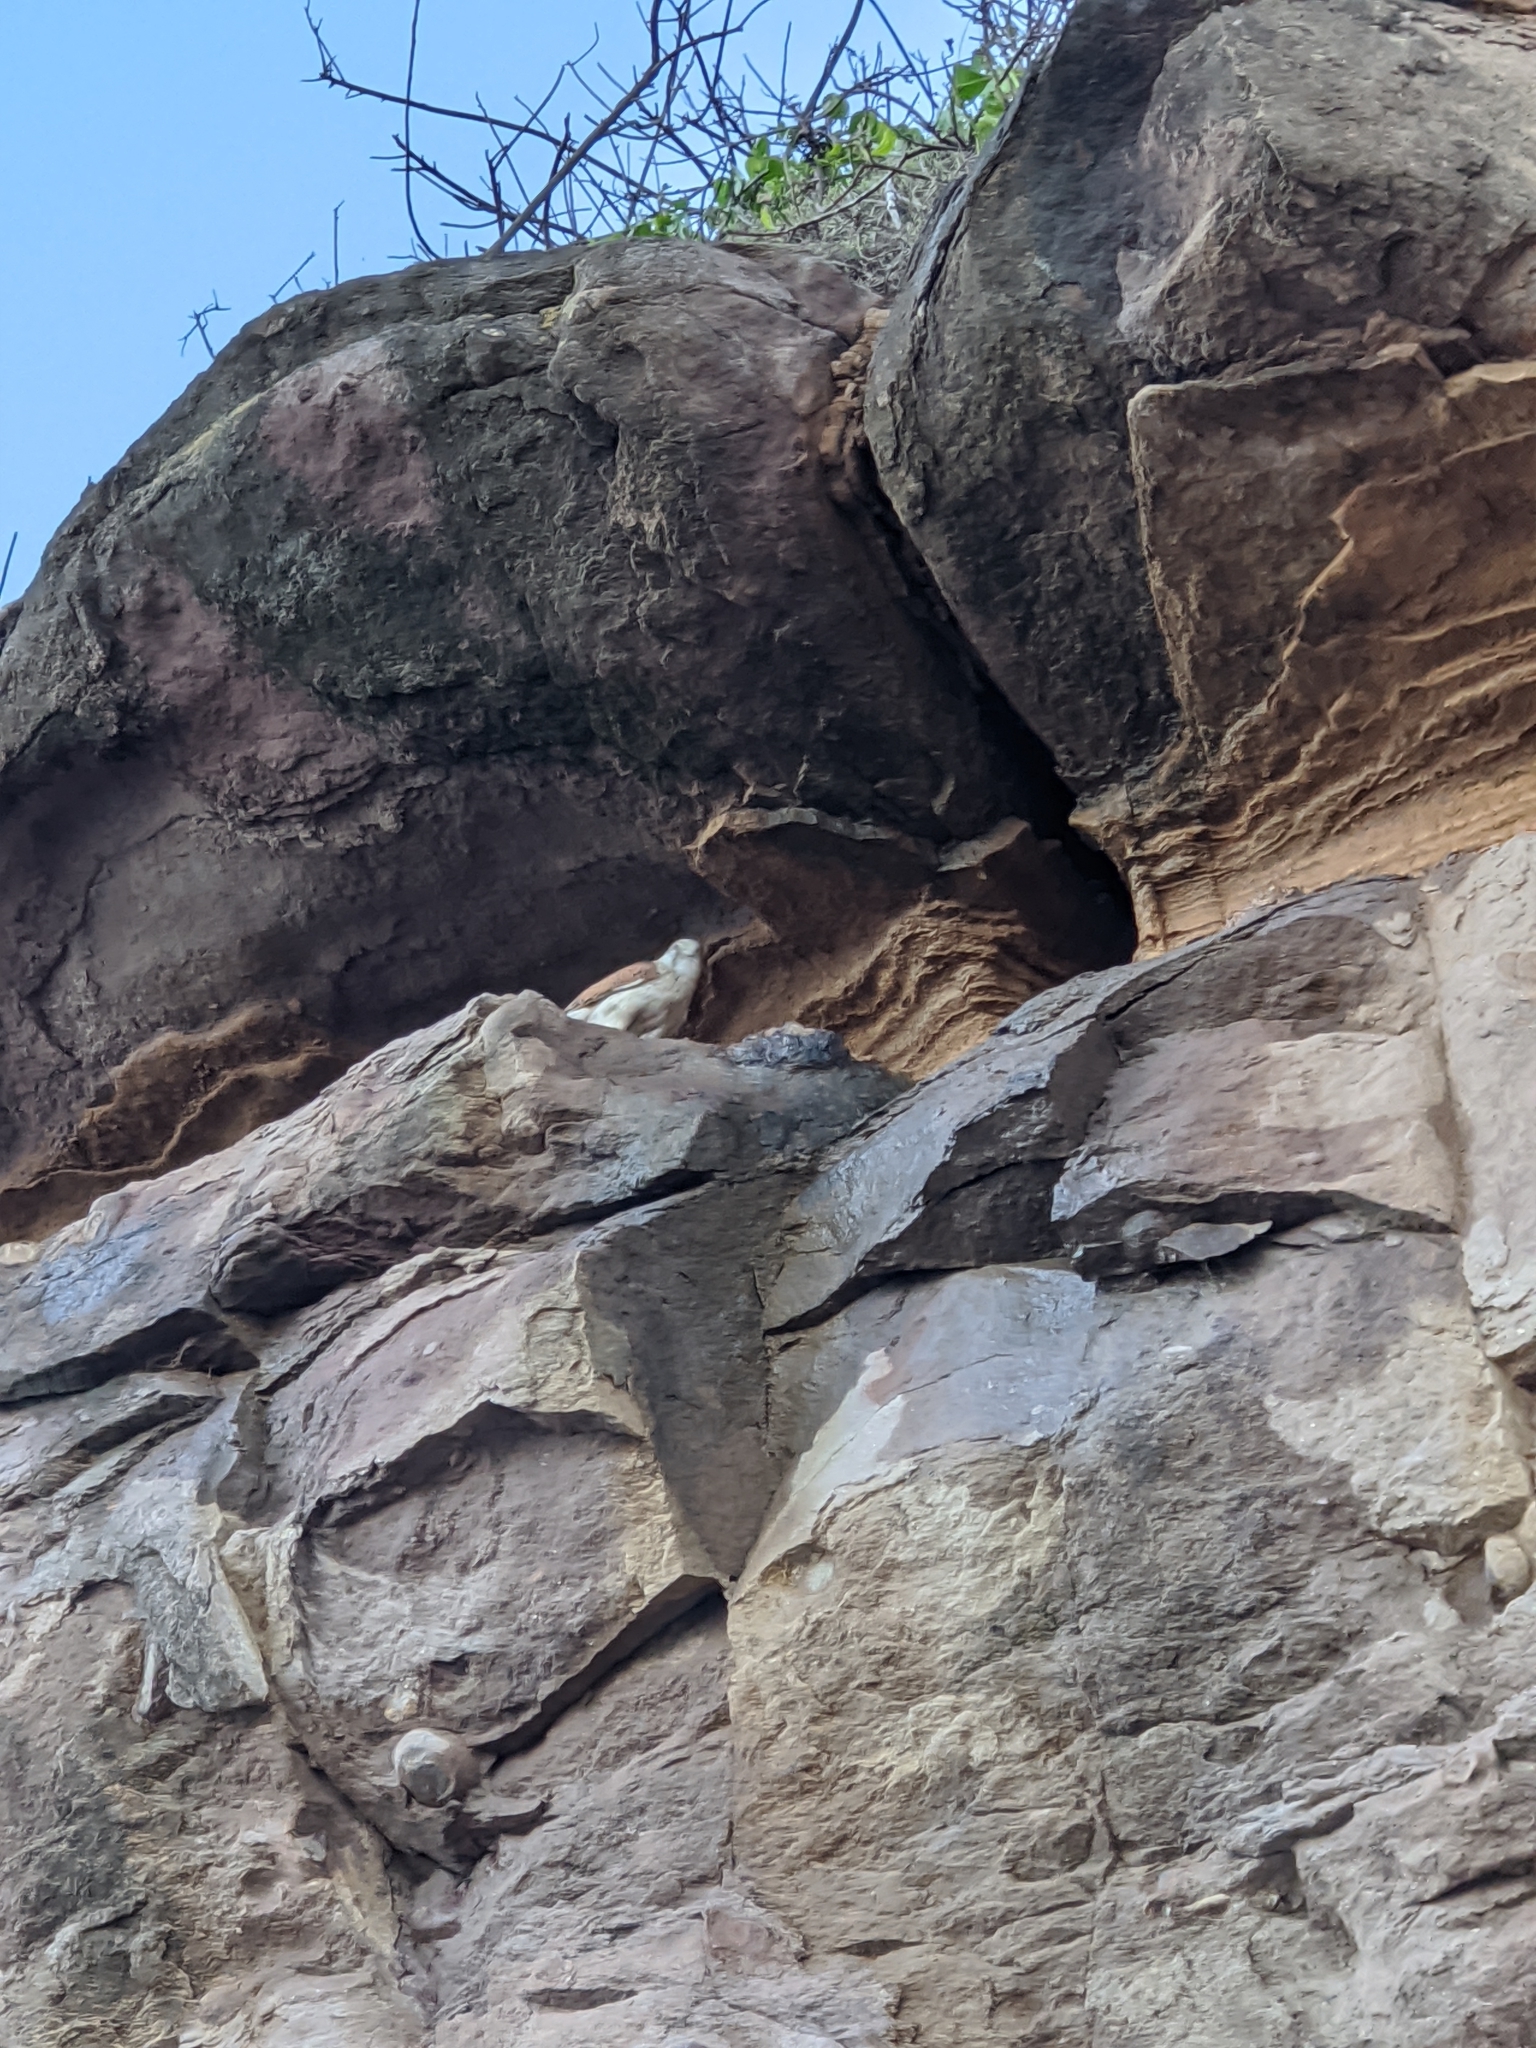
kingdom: Animalia
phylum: Chordata
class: Aves
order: Falconiformes
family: Falconidae
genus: Falco
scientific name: Falco cenchroides
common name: Nankeen kestrel
